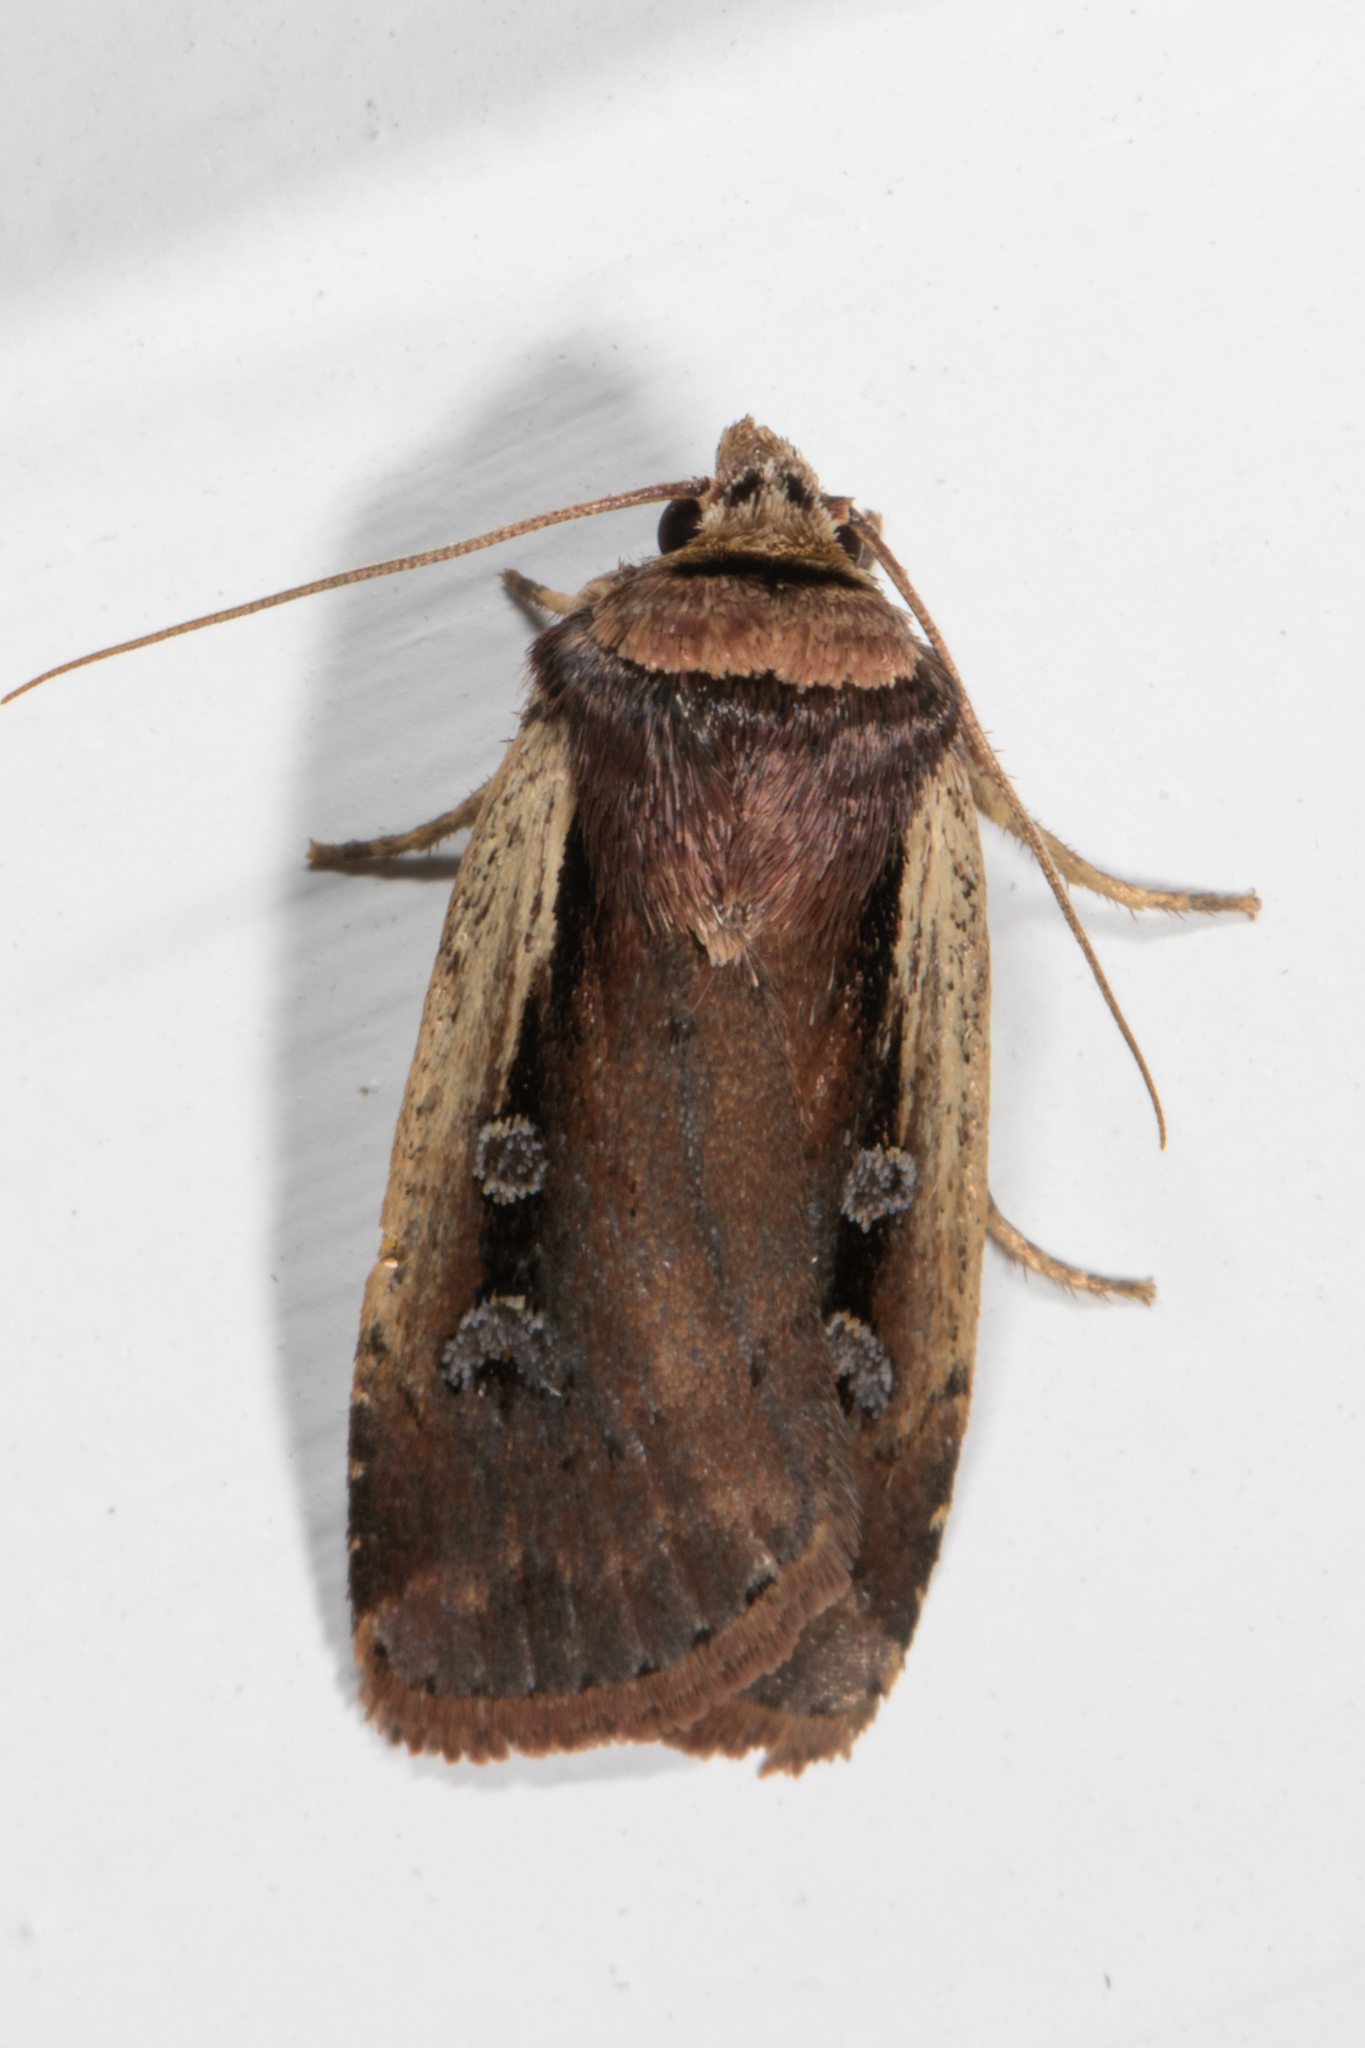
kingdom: Animalia
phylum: Arthropoda
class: Insecta
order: Lepidoptera
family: Noctuidae
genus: Ochropleura
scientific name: Ochropleura implecta
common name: Flame-shouldered dart
